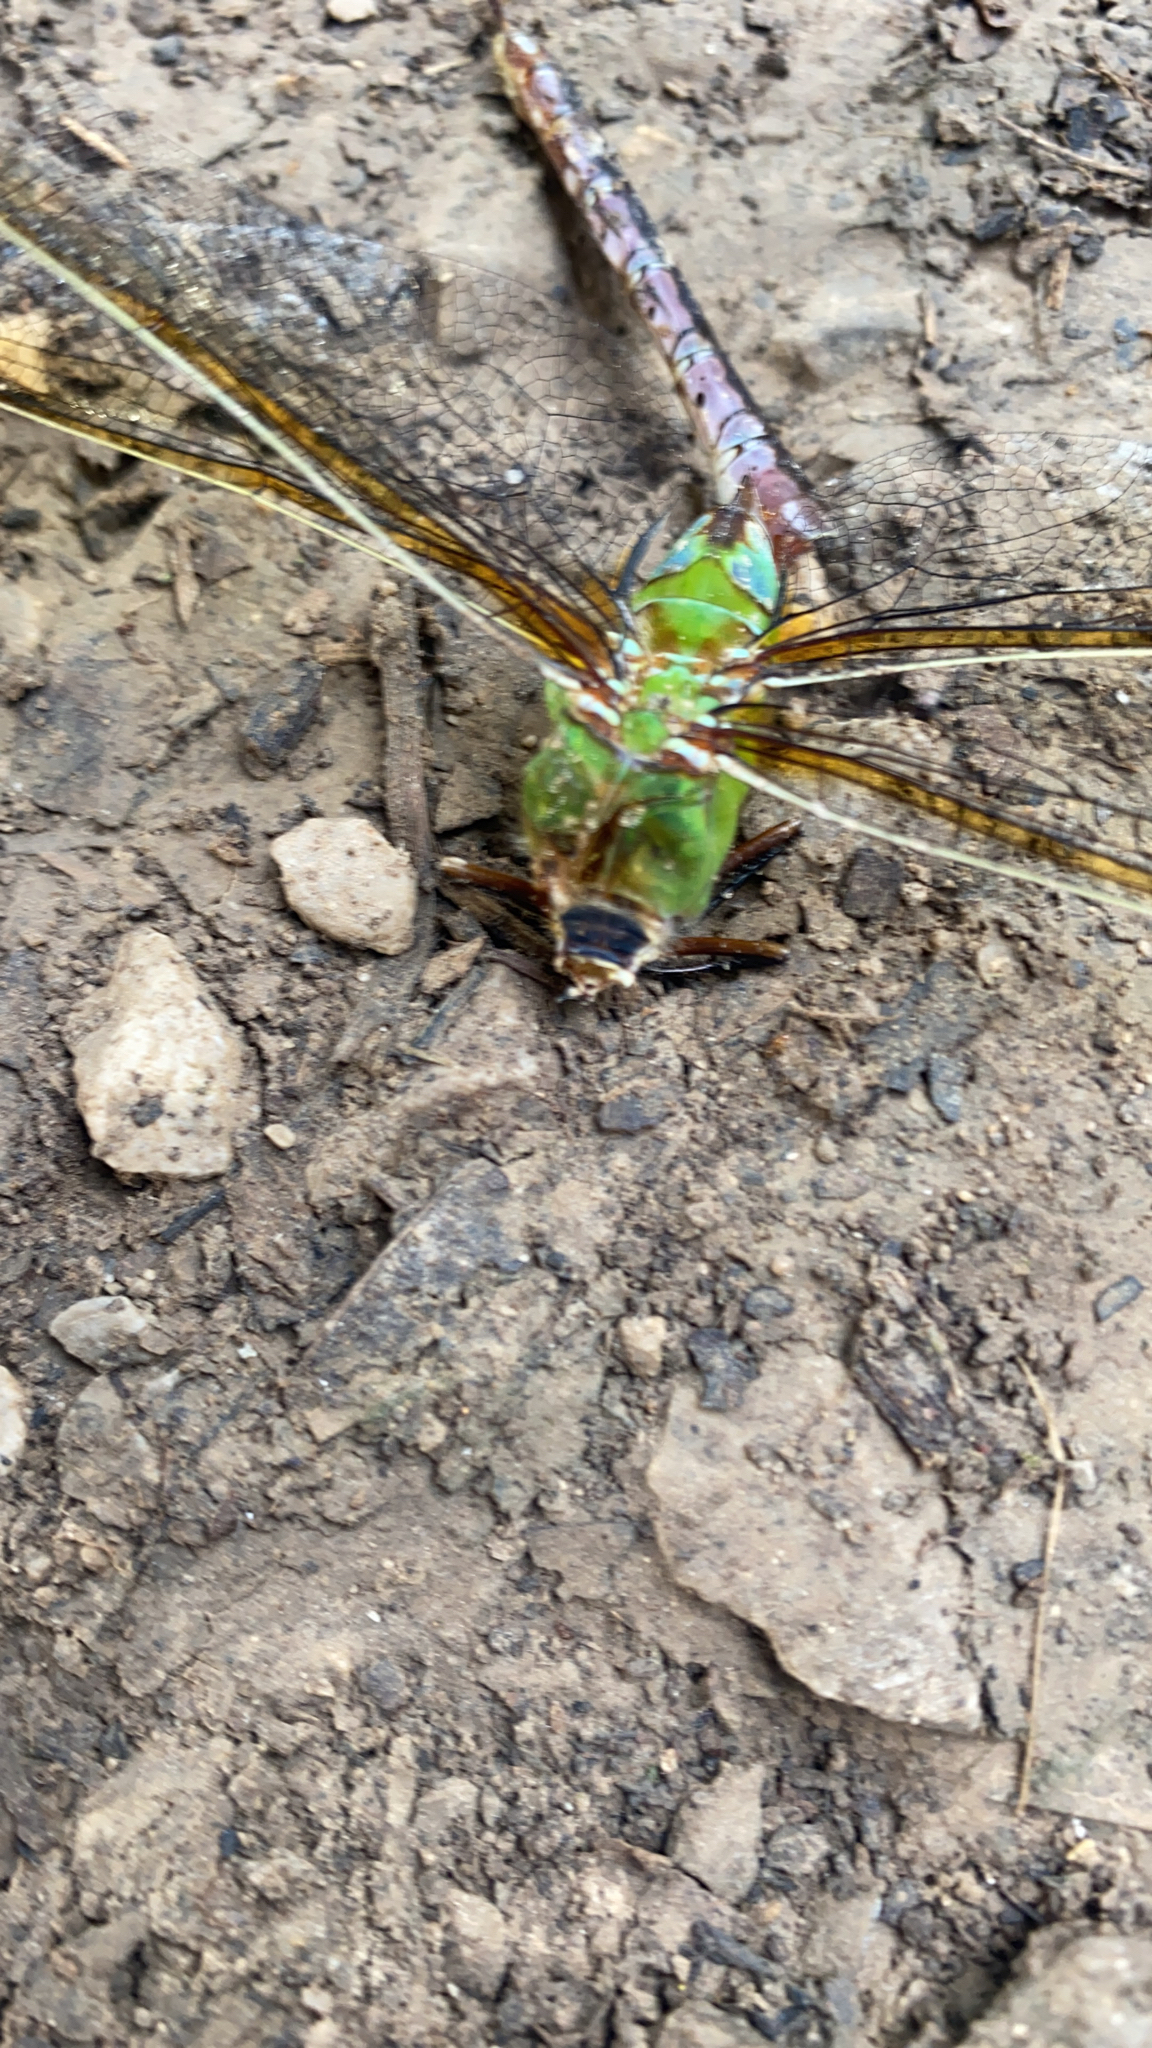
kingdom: Animalia
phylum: Arthropoda
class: Insecta
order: Odonata
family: Aeshnidae
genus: Anax
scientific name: Anax junius
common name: Common green darner
